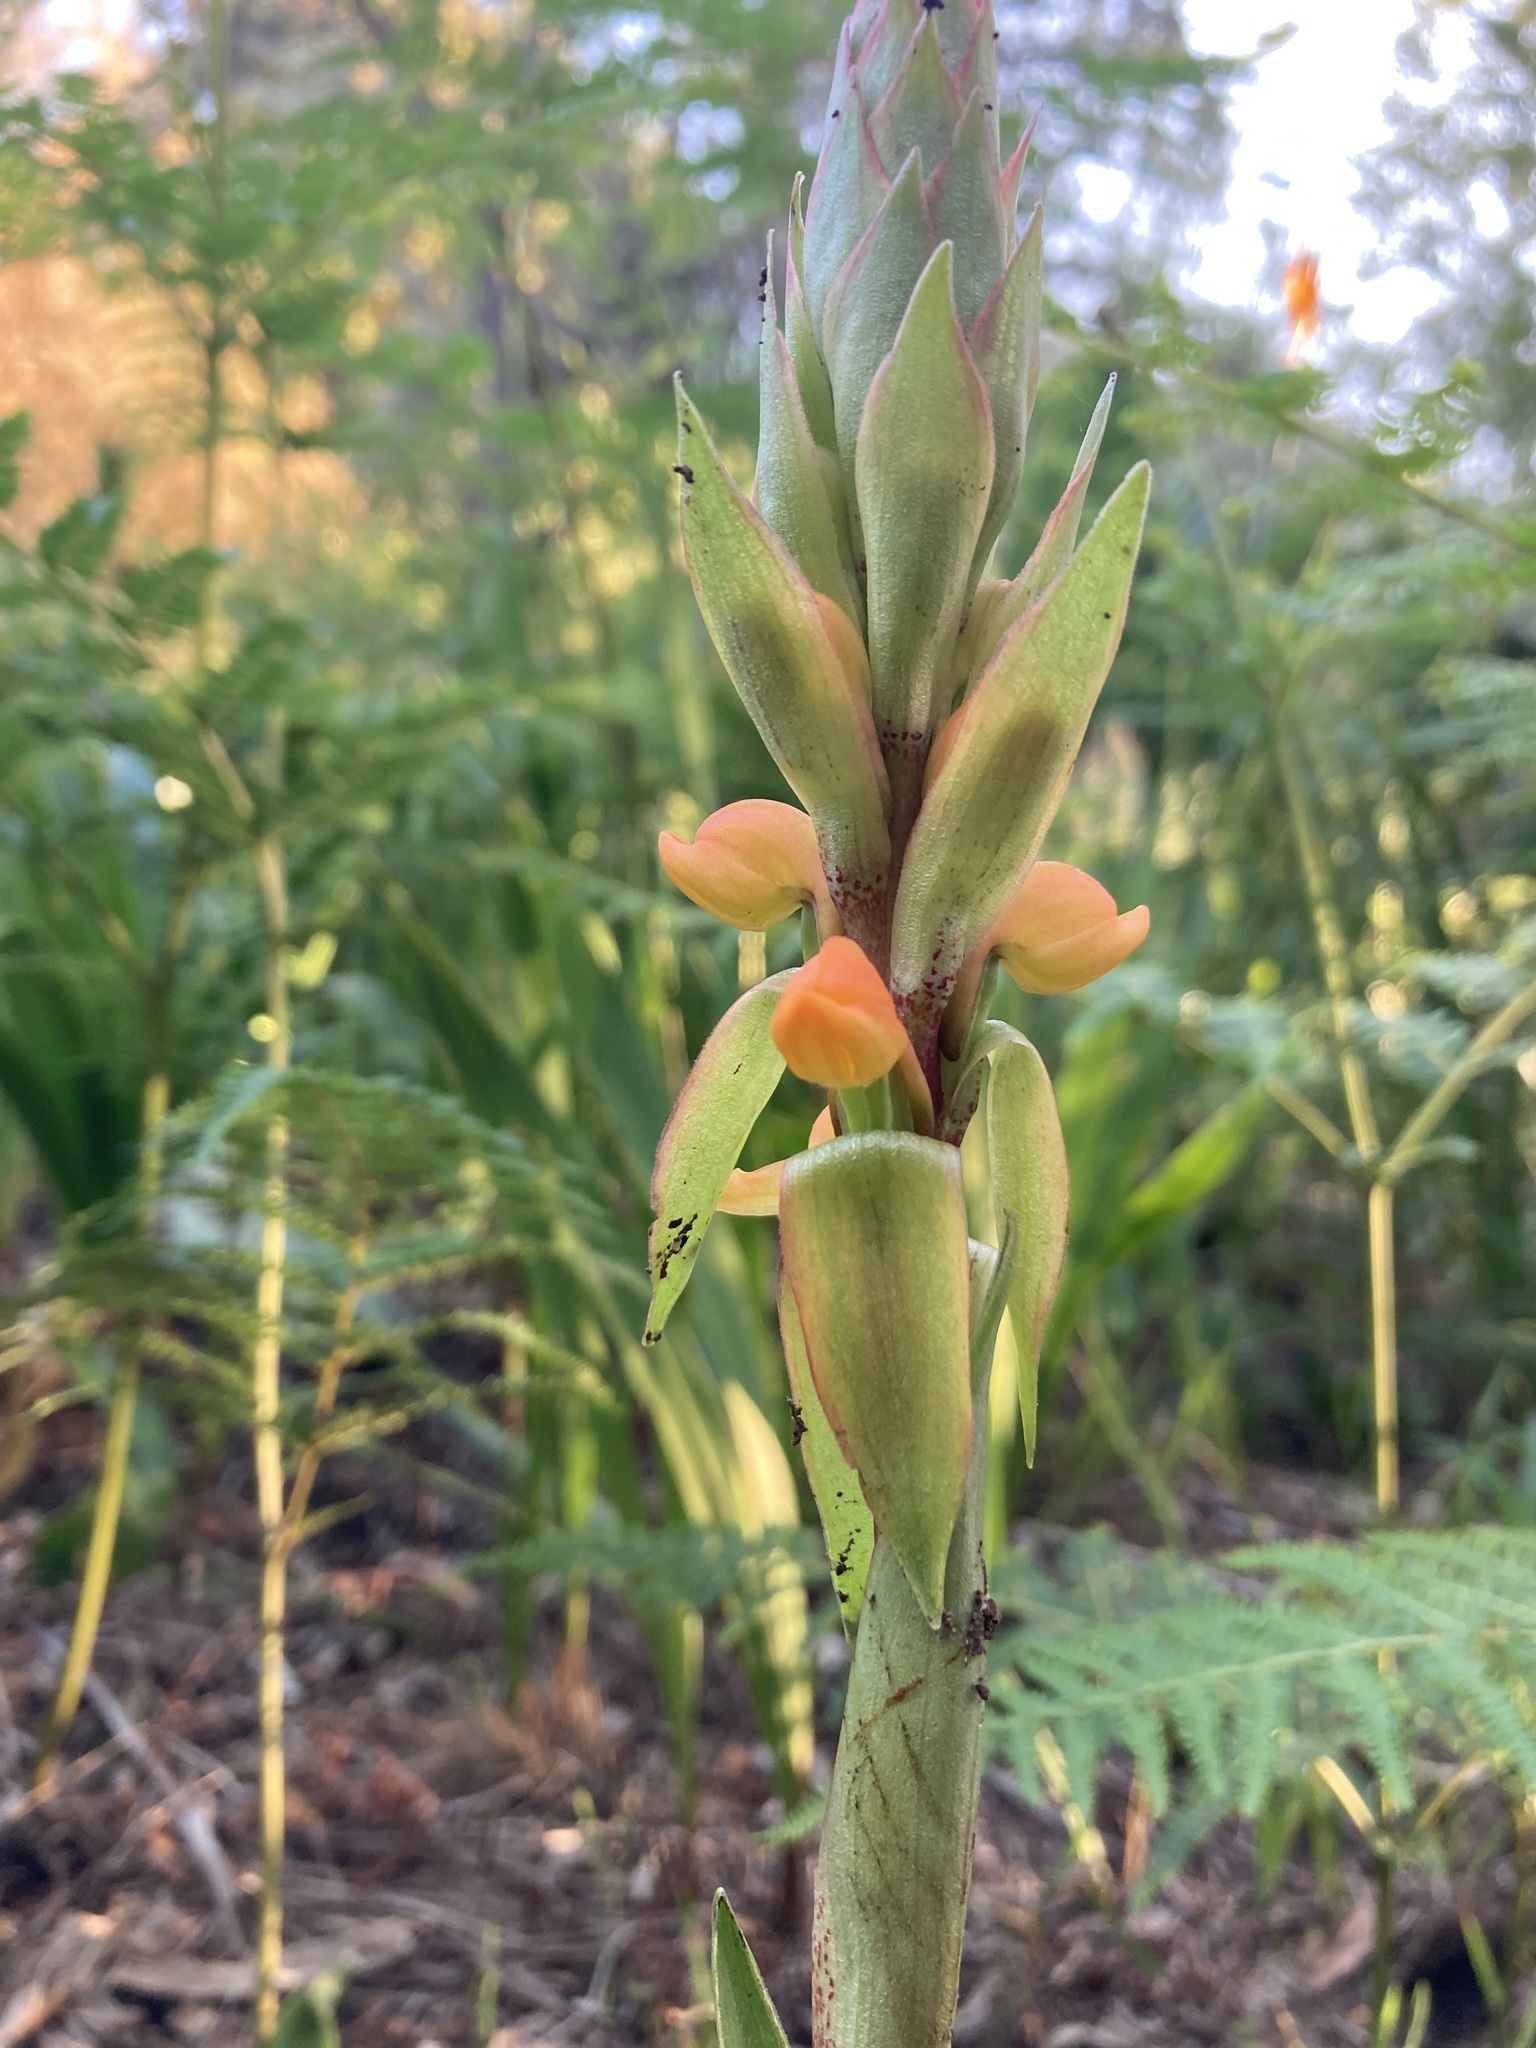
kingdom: Plantae
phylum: Tracheophyta
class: Liliopsida
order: Asparagales
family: Orchidaceae
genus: Satyrium
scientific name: Satyrium coriifolium
